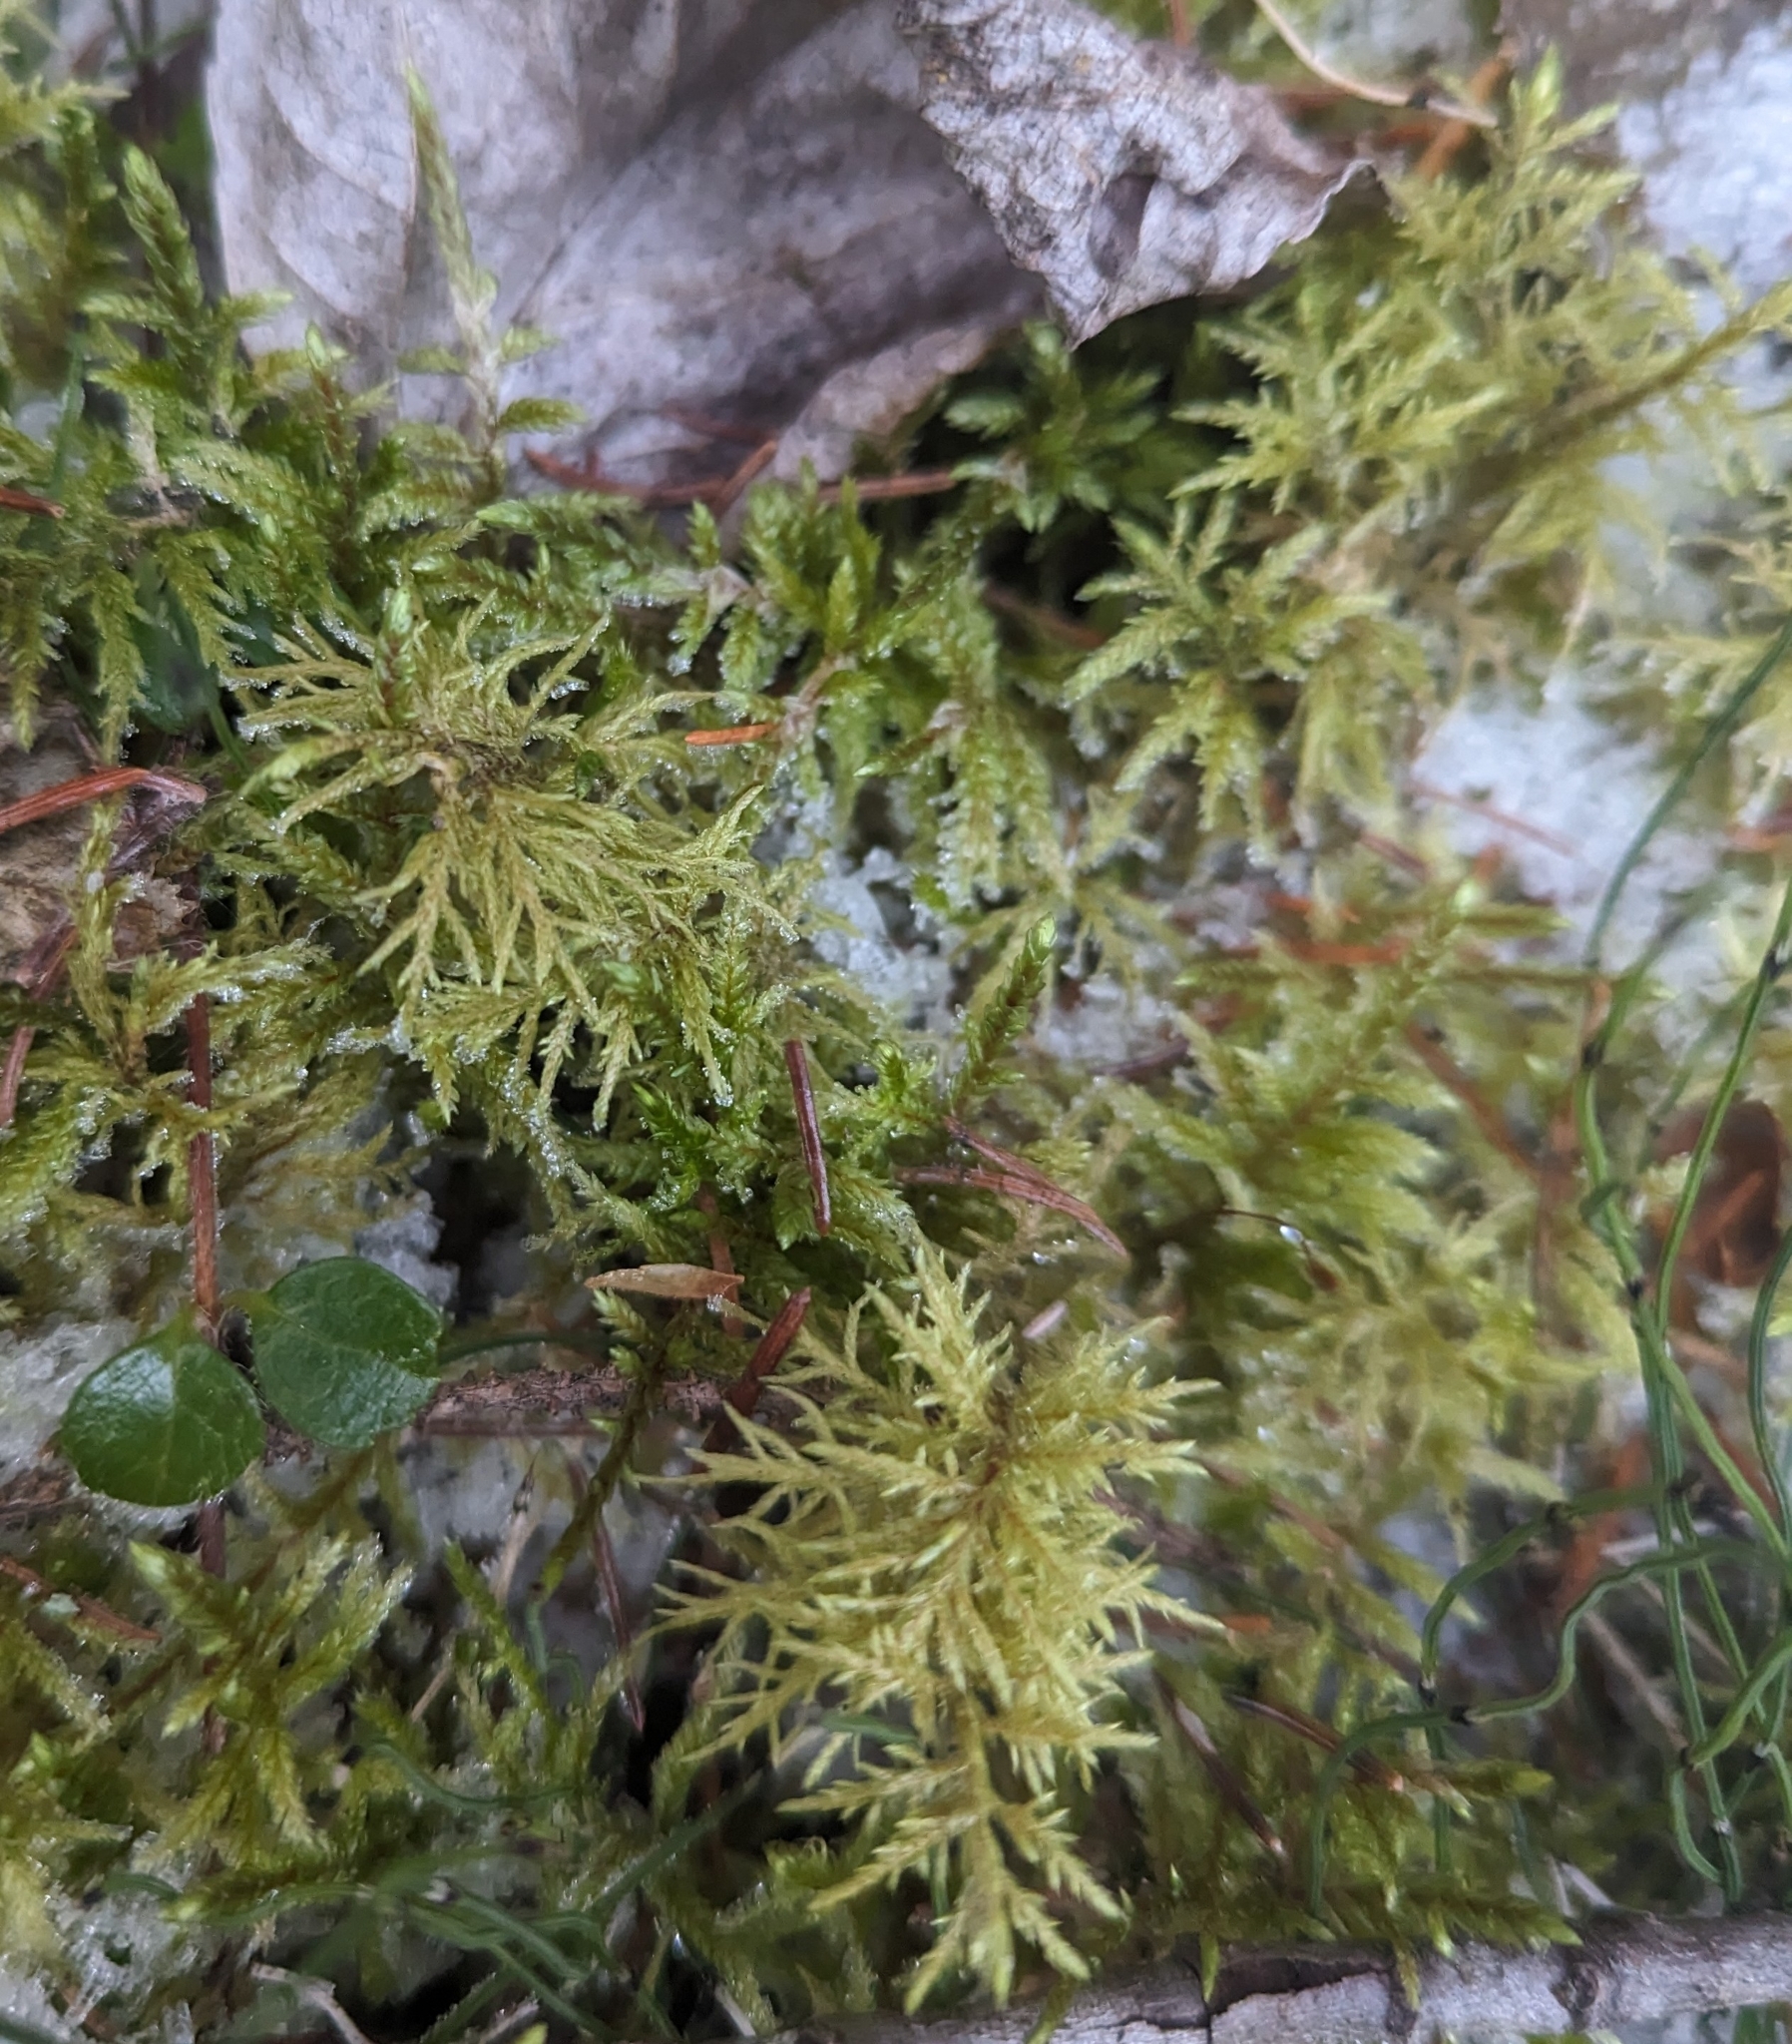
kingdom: Plantae
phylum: Bryophyta
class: Bryopsida
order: Hypnales
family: Hylocomiaceae
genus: Hylocomium
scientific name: Hylocomium splendens
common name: Stairstep moss
